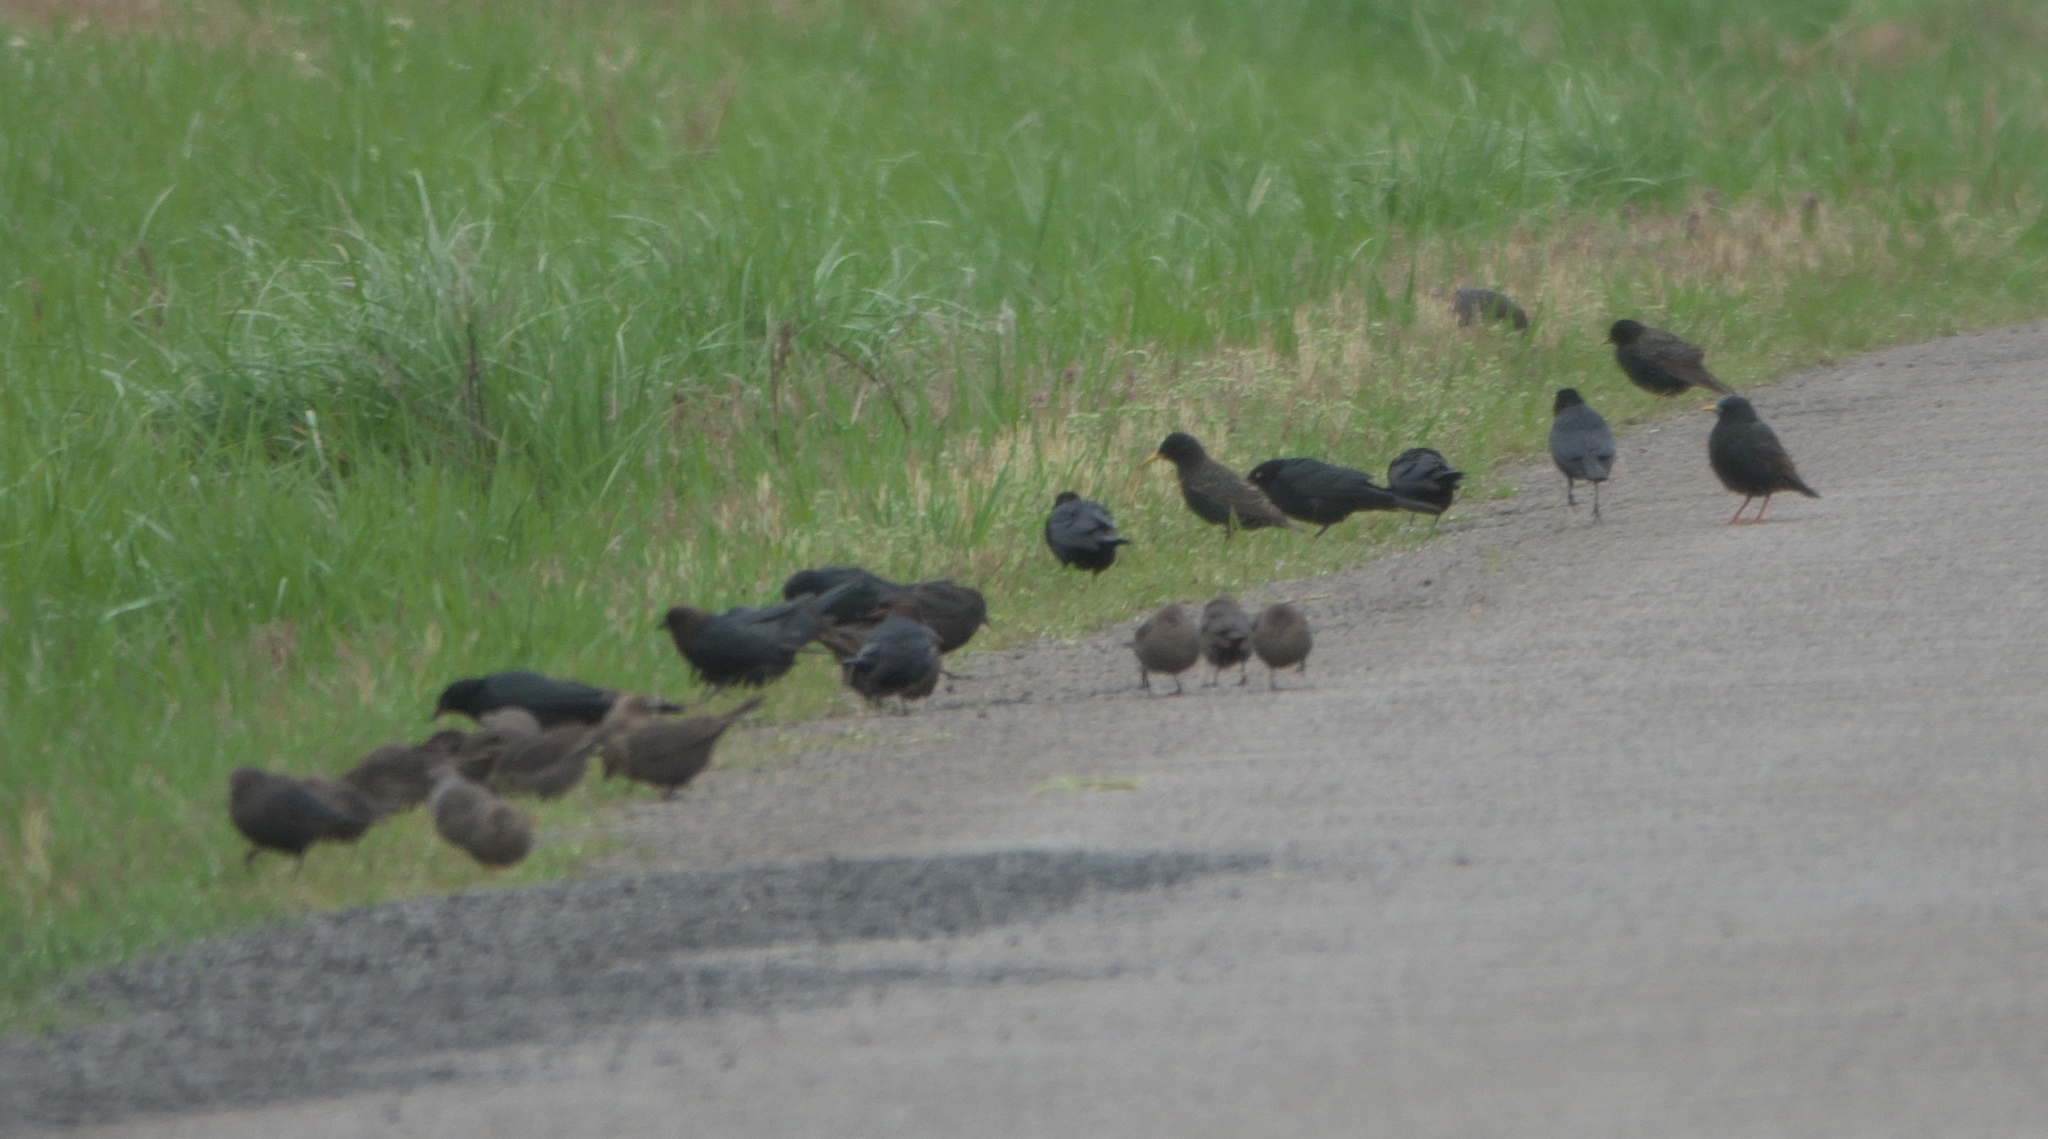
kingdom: Animalia
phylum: Chordata
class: Aves
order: Passeriformes
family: Icteridae
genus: Molothrus
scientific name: Molothrus ater
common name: Brown-headed cowbird
